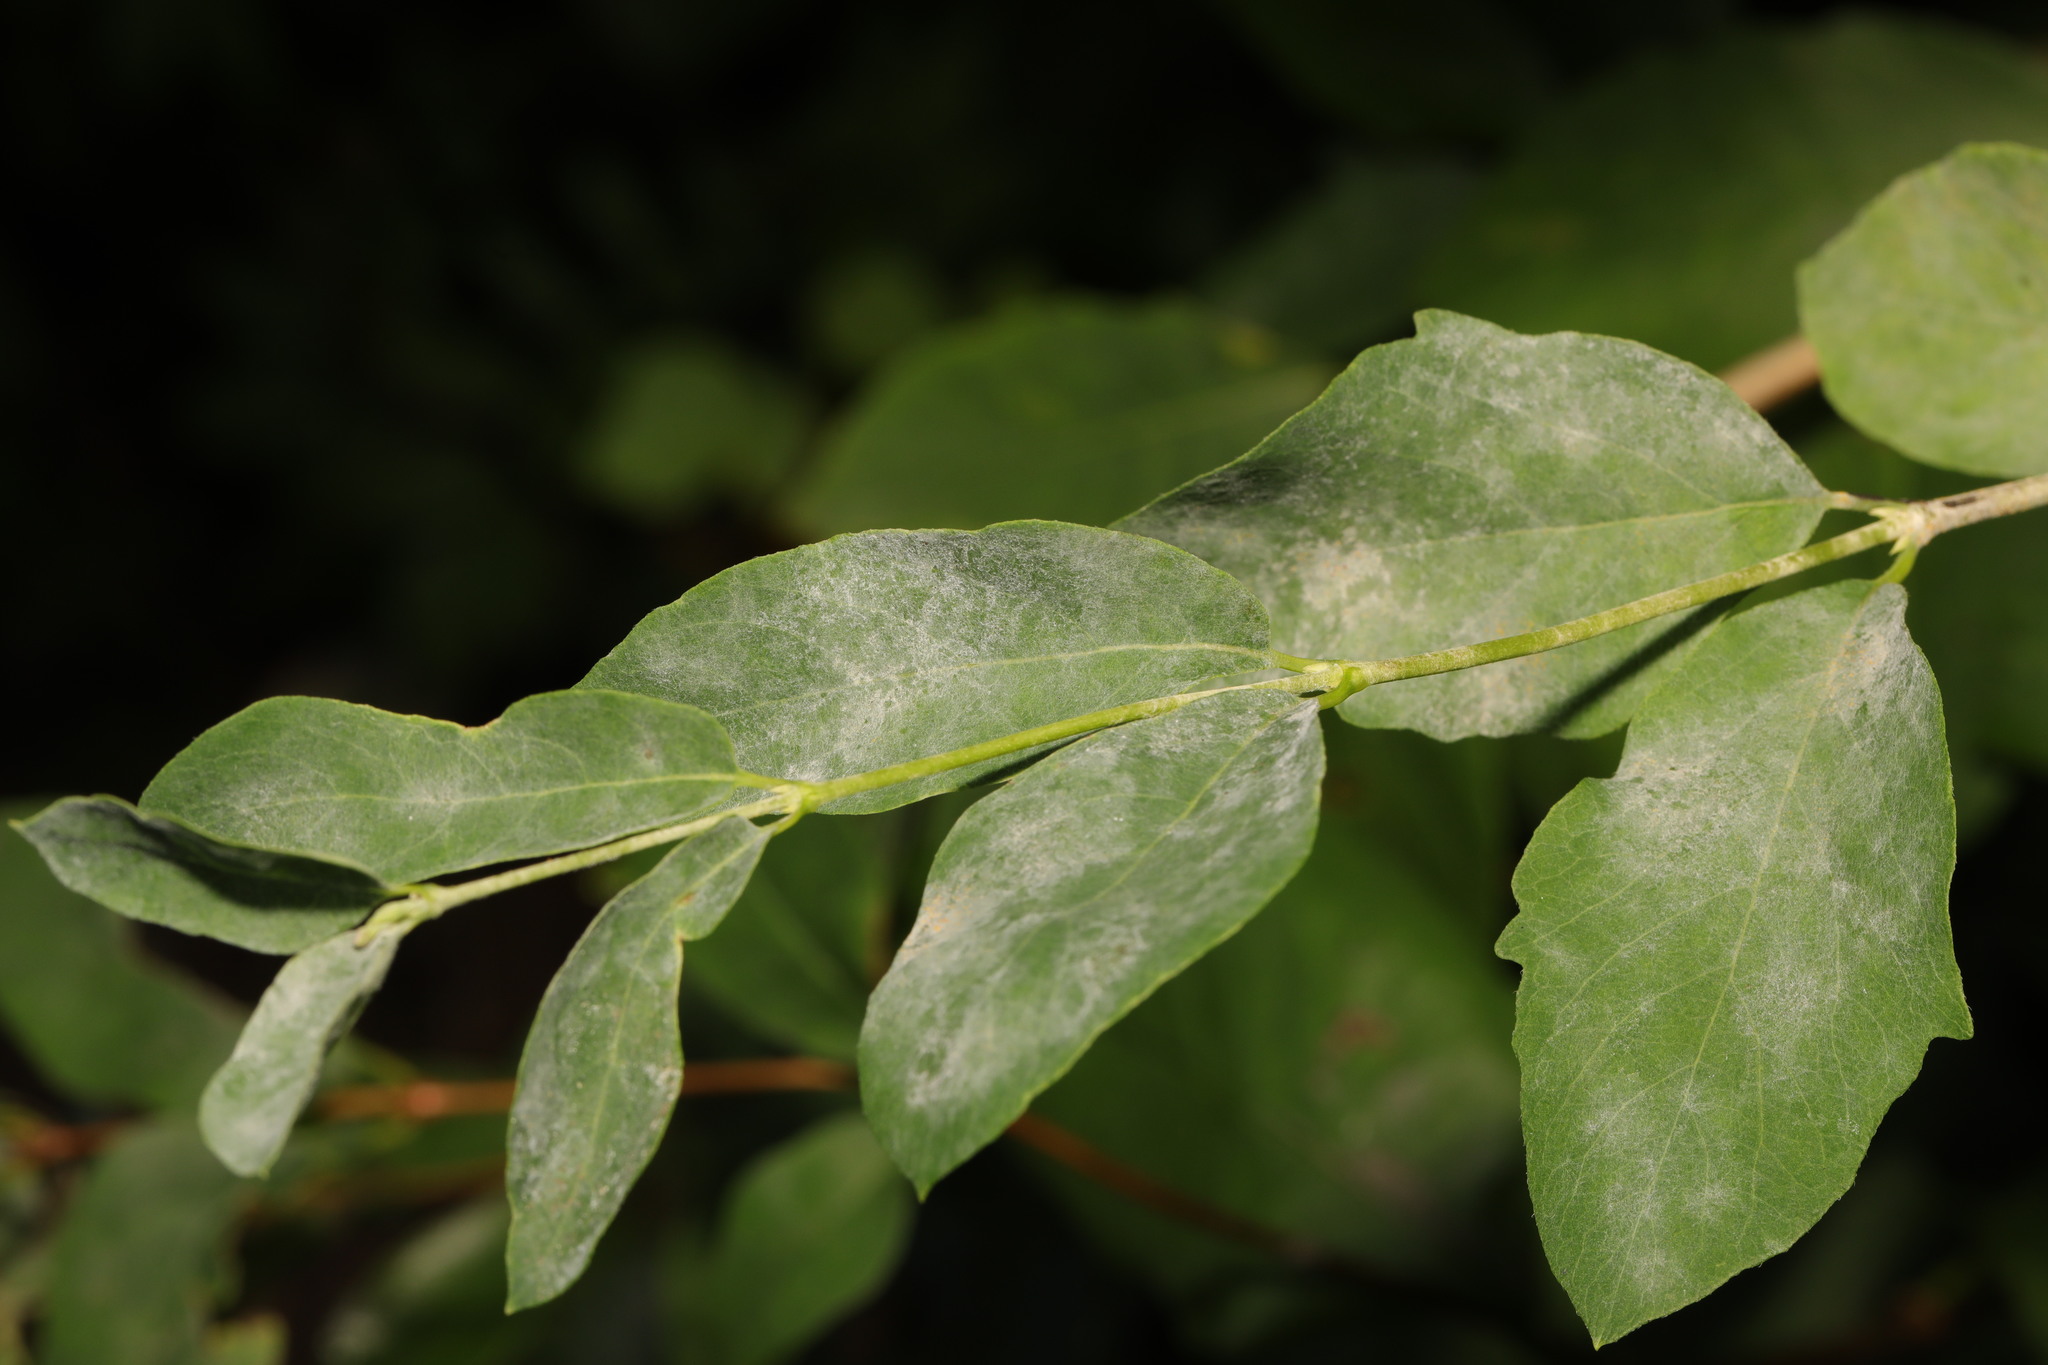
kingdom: Fungi
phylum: Ascomycota
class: Leotiomycetes
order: Helotiales
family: Erysiphaceae
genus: Erysiphe
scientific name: Erysiphe symphoricarpi
